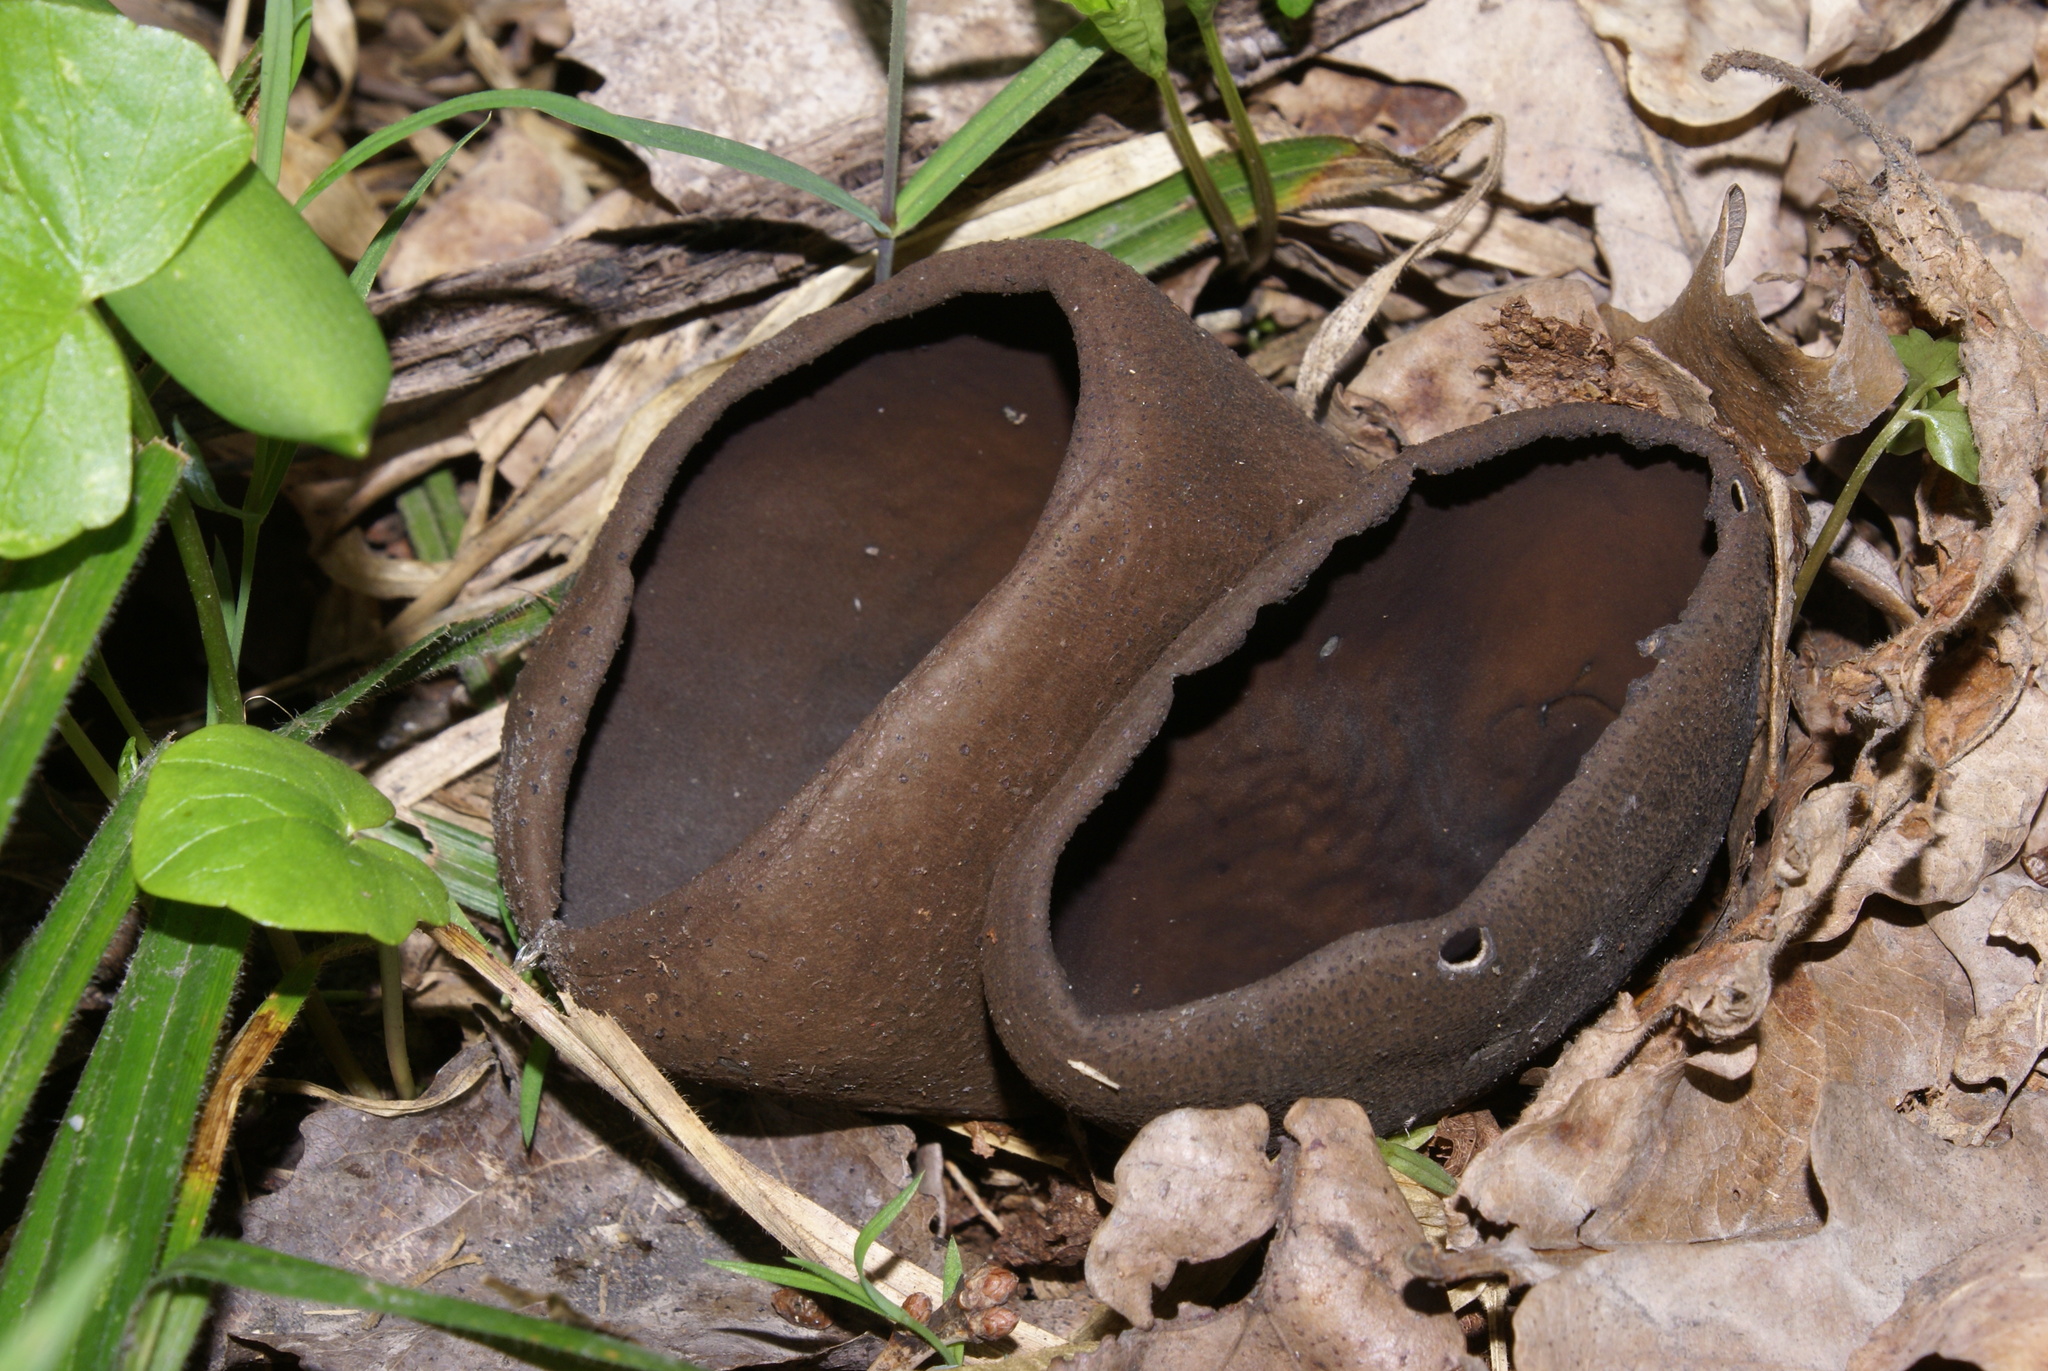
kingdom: Fungi
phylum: Ascomycota
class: Pezizomycetes
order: Pezizales
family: Sarcosomataceae
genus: Urnula
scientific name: Urnula craterium
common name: Devil's urn
